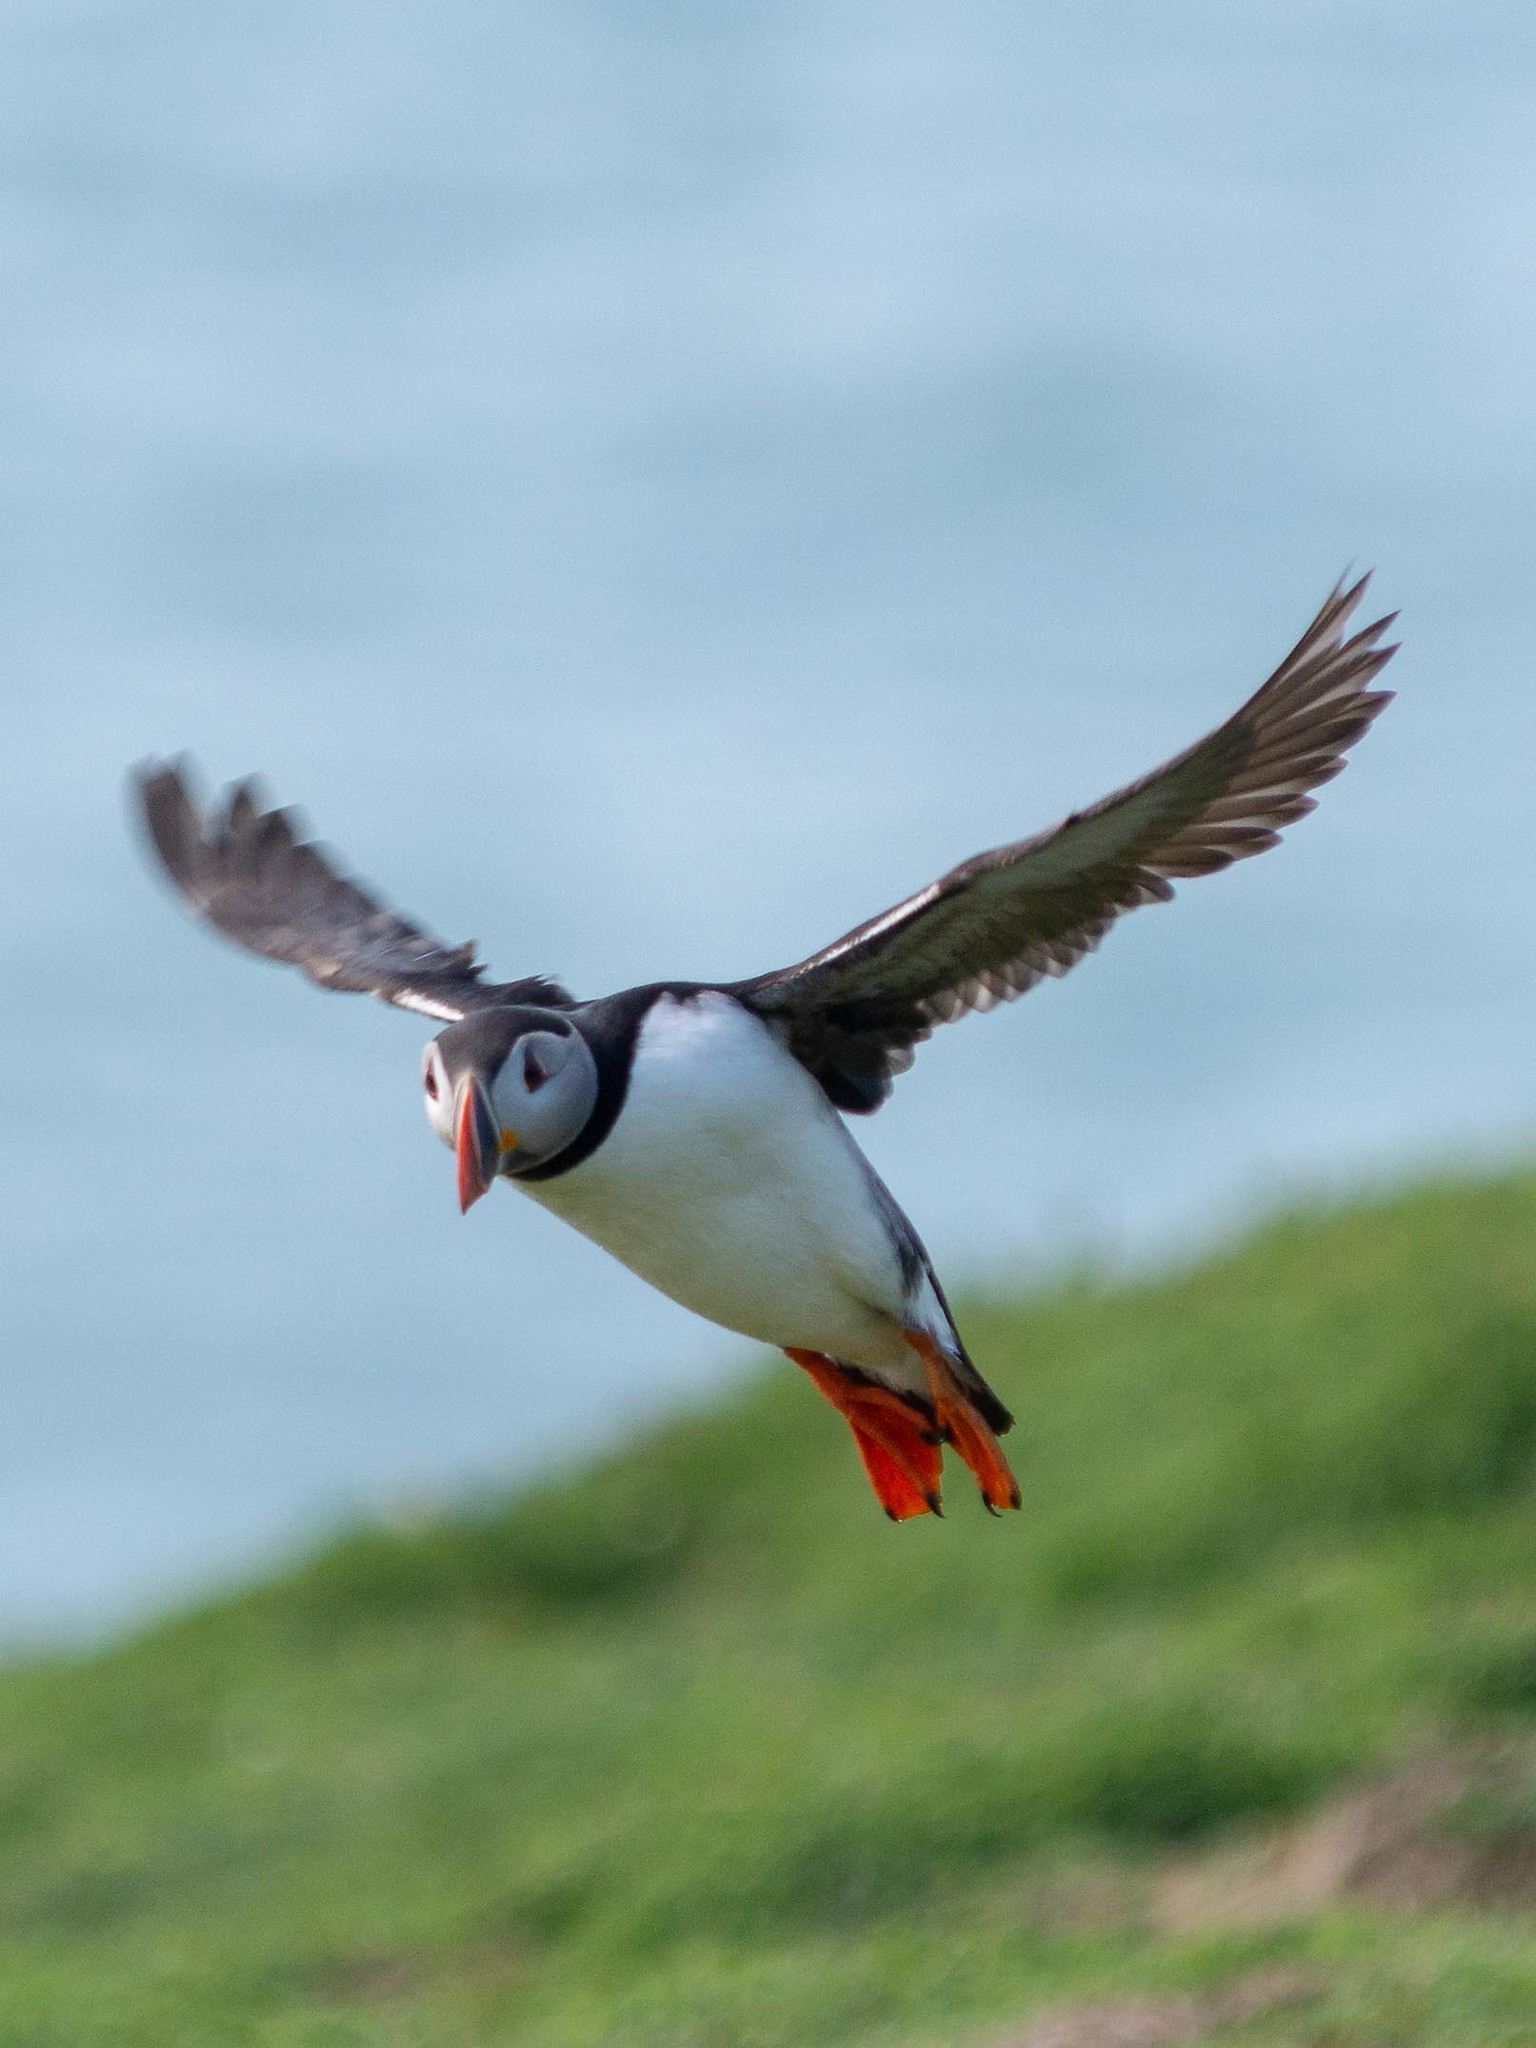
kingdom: Animalia
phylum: Chordata
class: Aves
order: Charadriiformes
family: Alcidae
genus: Fratercula
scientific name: Fratercula arctica
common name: Atlantic puffin
